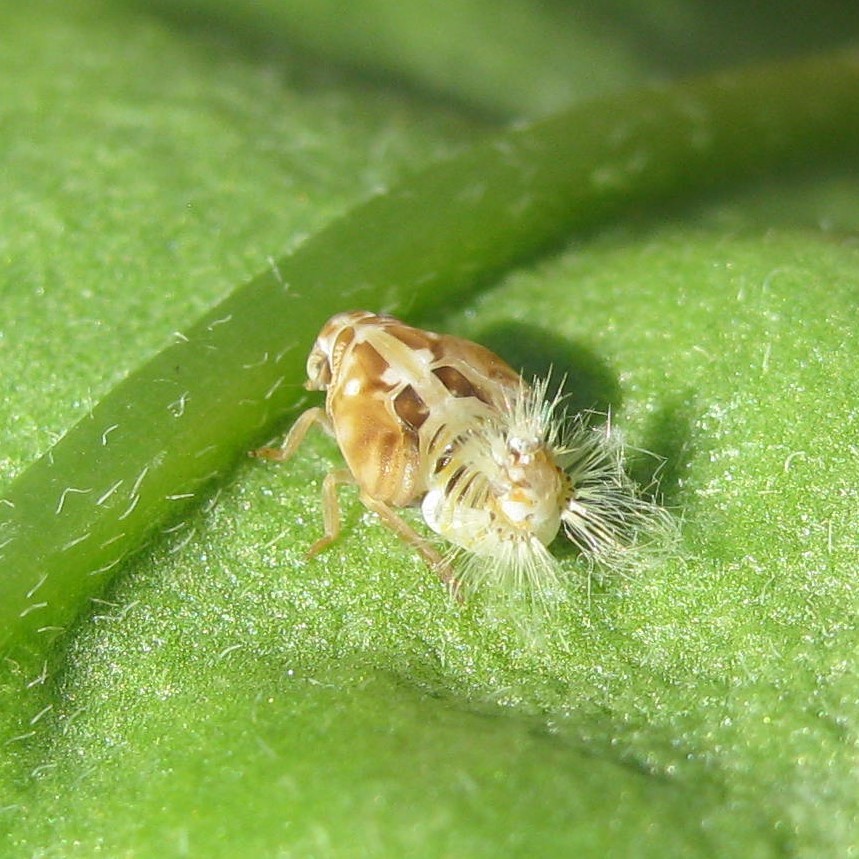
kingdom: Animalia
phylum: Arthropoda
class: Insecta
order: Hemiptera
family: Ricaniidae
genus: Scolypopa
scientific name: Scolypopa australis
